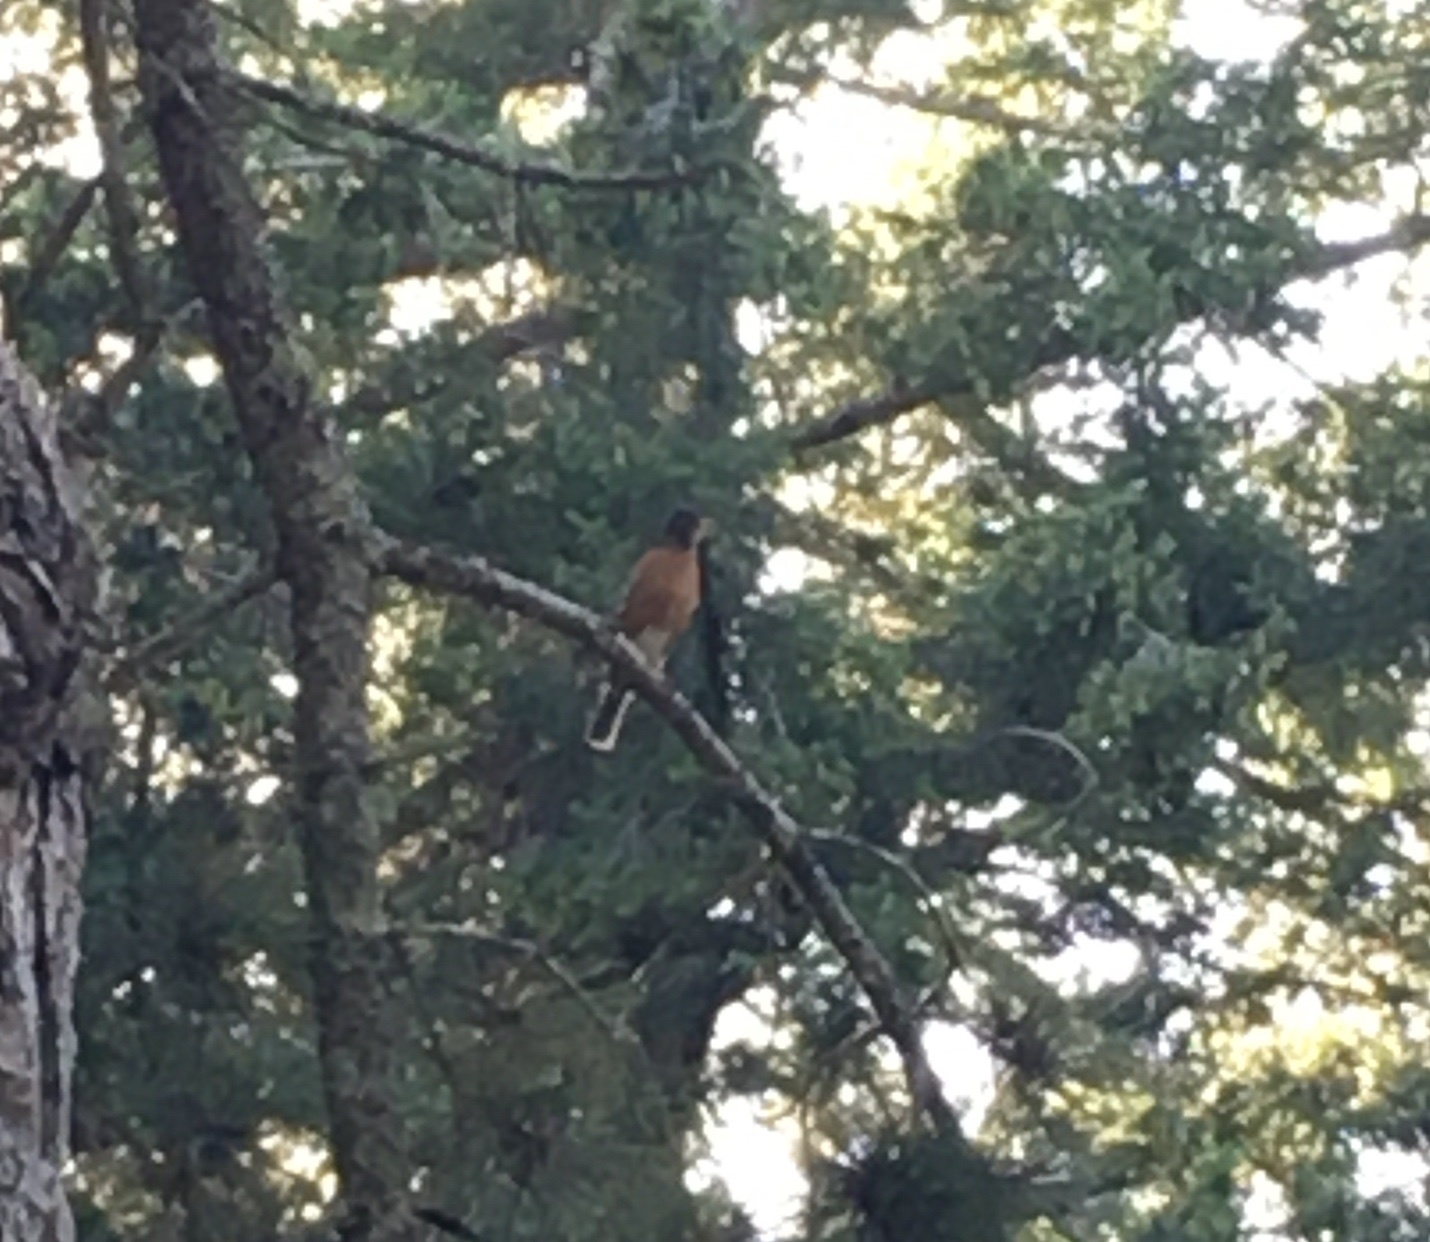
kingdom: Animalia
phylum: Chordata
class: Aves
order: Passeriformes
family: Turdidae
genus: Turdus
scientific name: Turdus migratorius
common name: American robin
